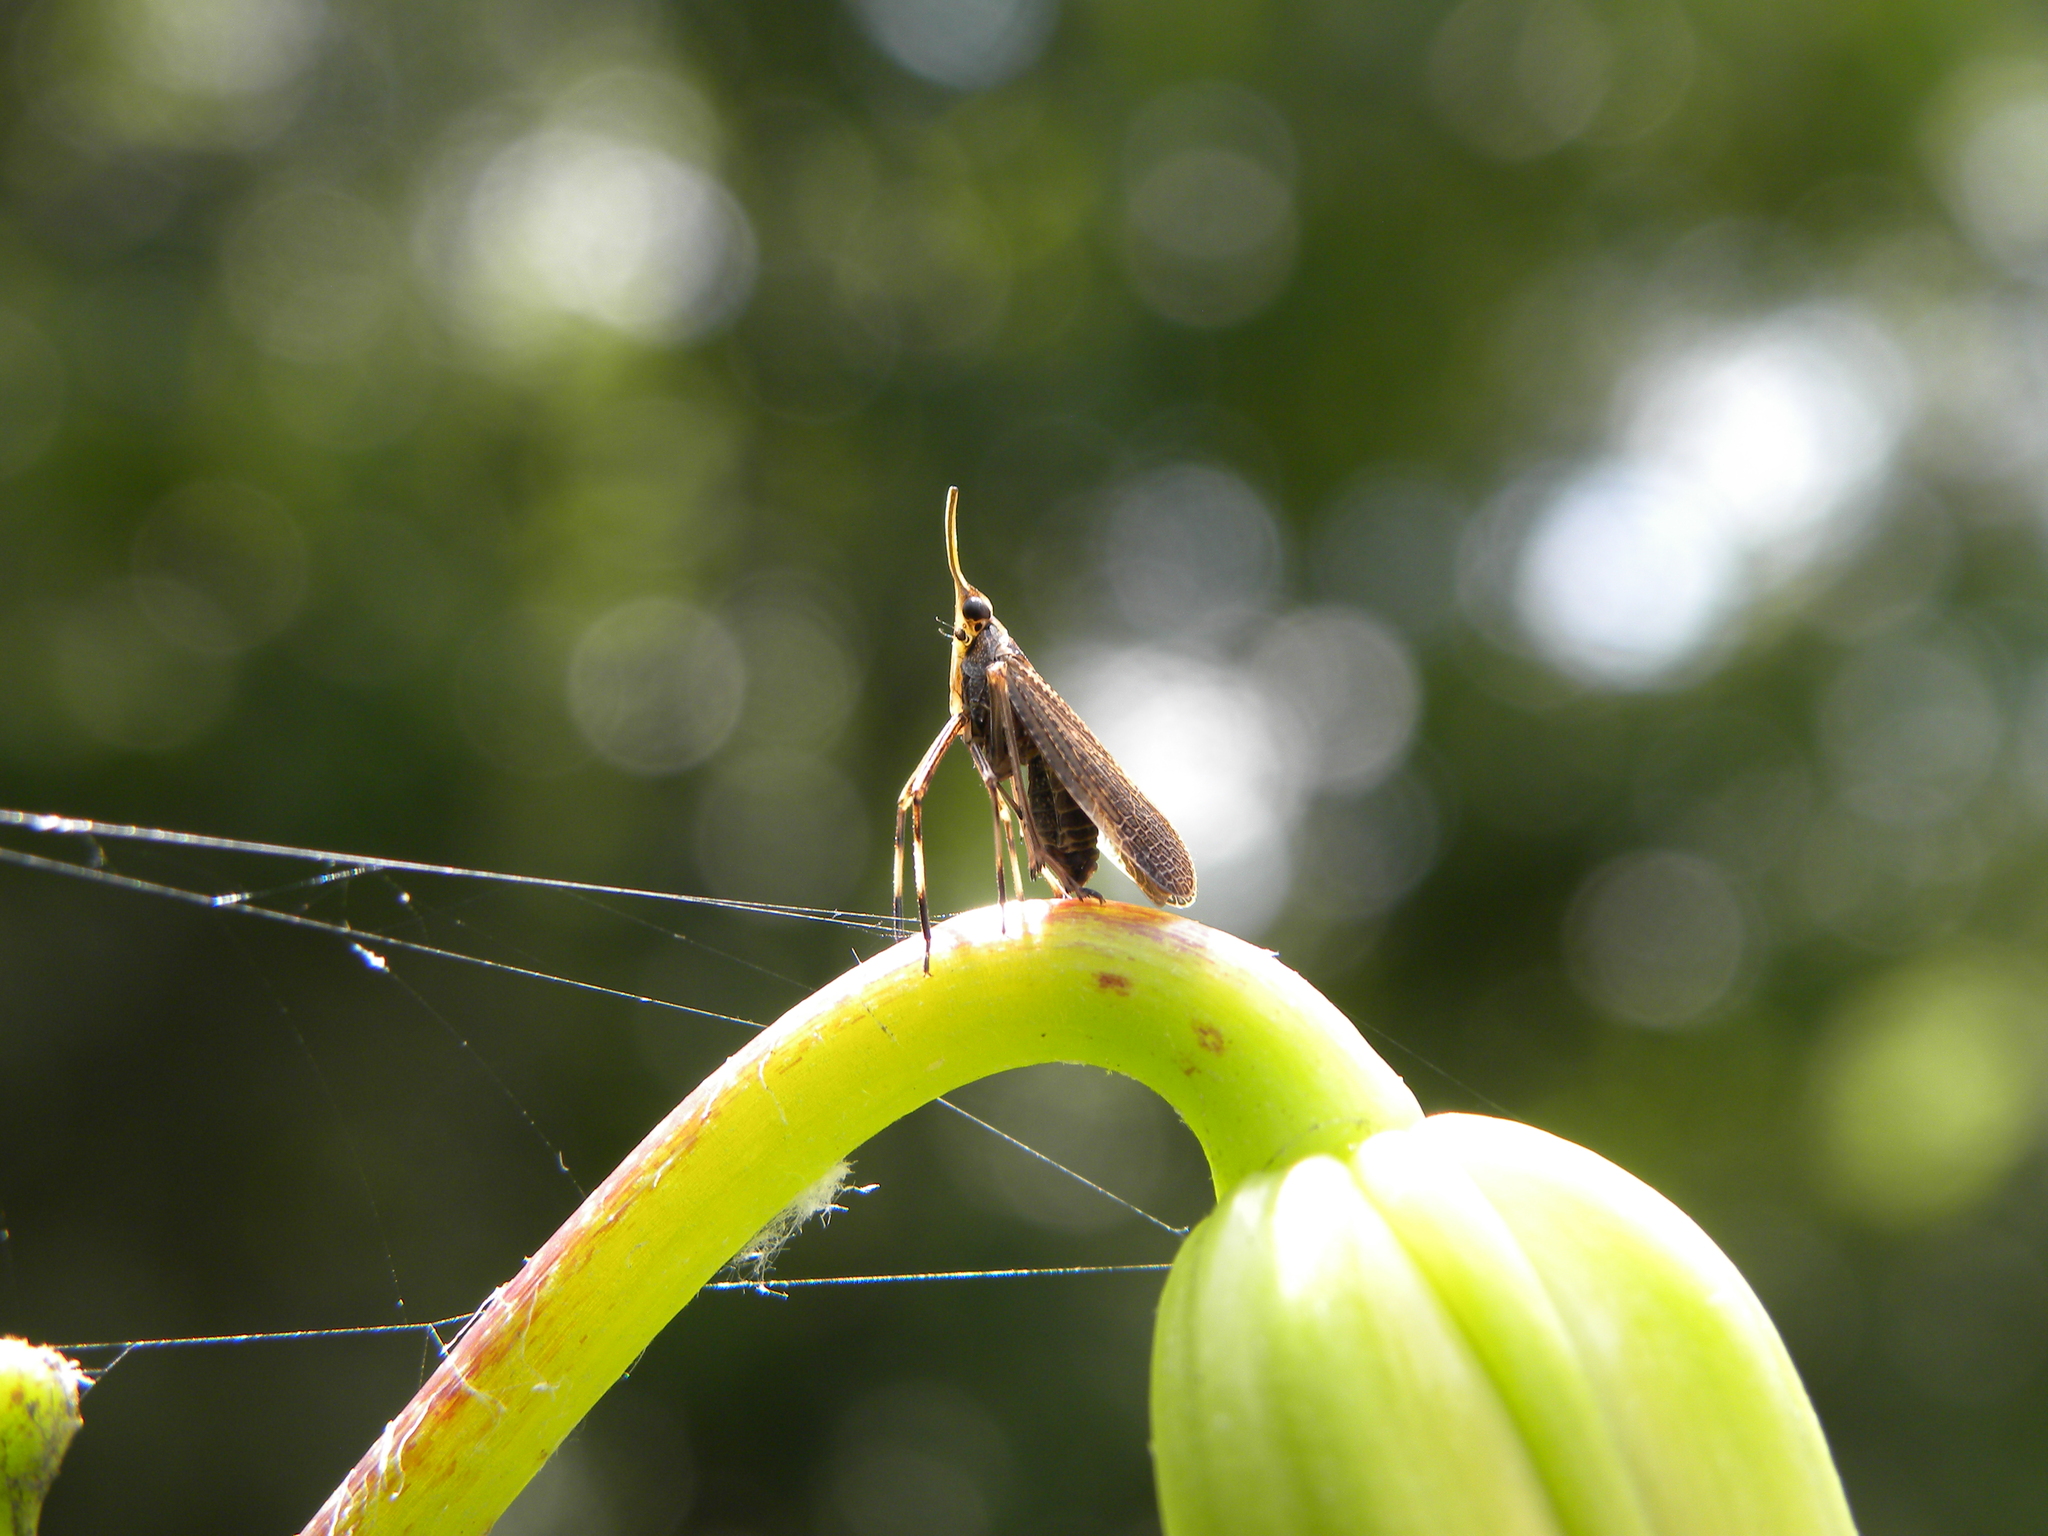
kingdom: Animalia
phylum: Arthropoda
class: Insecta
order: Hemiptera
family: Dictyopharidae
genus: Scolops
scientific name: Scolops sulcipes
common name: Partridge planthopper
